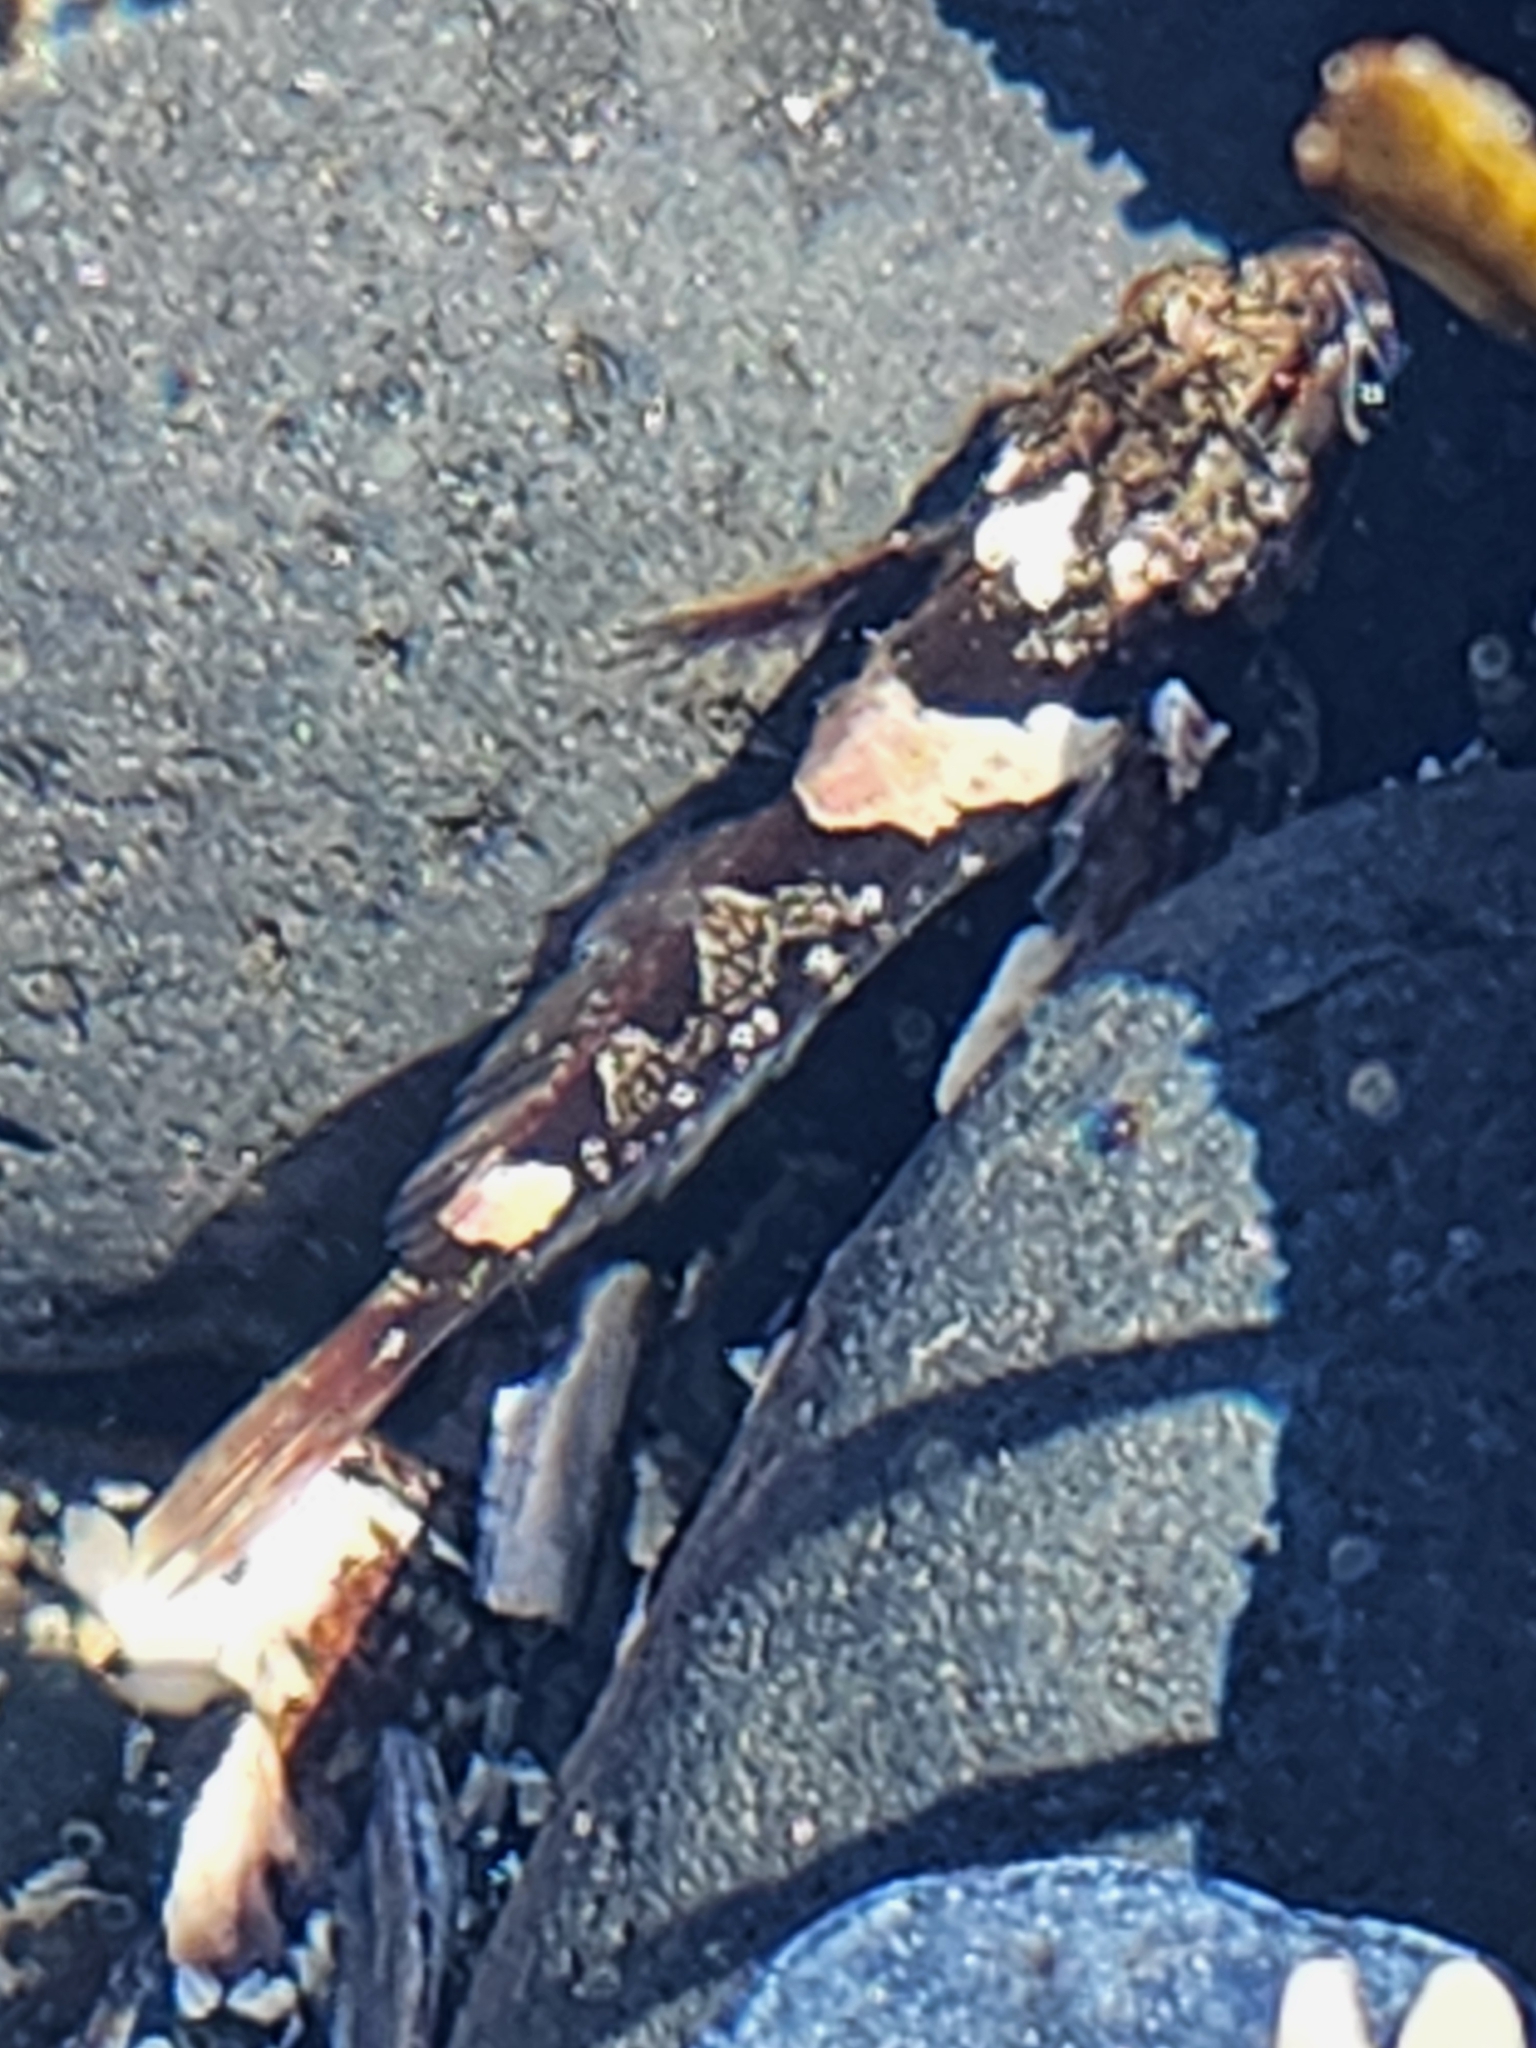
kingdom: Animalia
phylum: Chordata
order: Scorpaeniformes
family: Cottidae
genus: Oligocottus
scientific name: Oligocottus maculosus
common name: Tidepool sculpin
